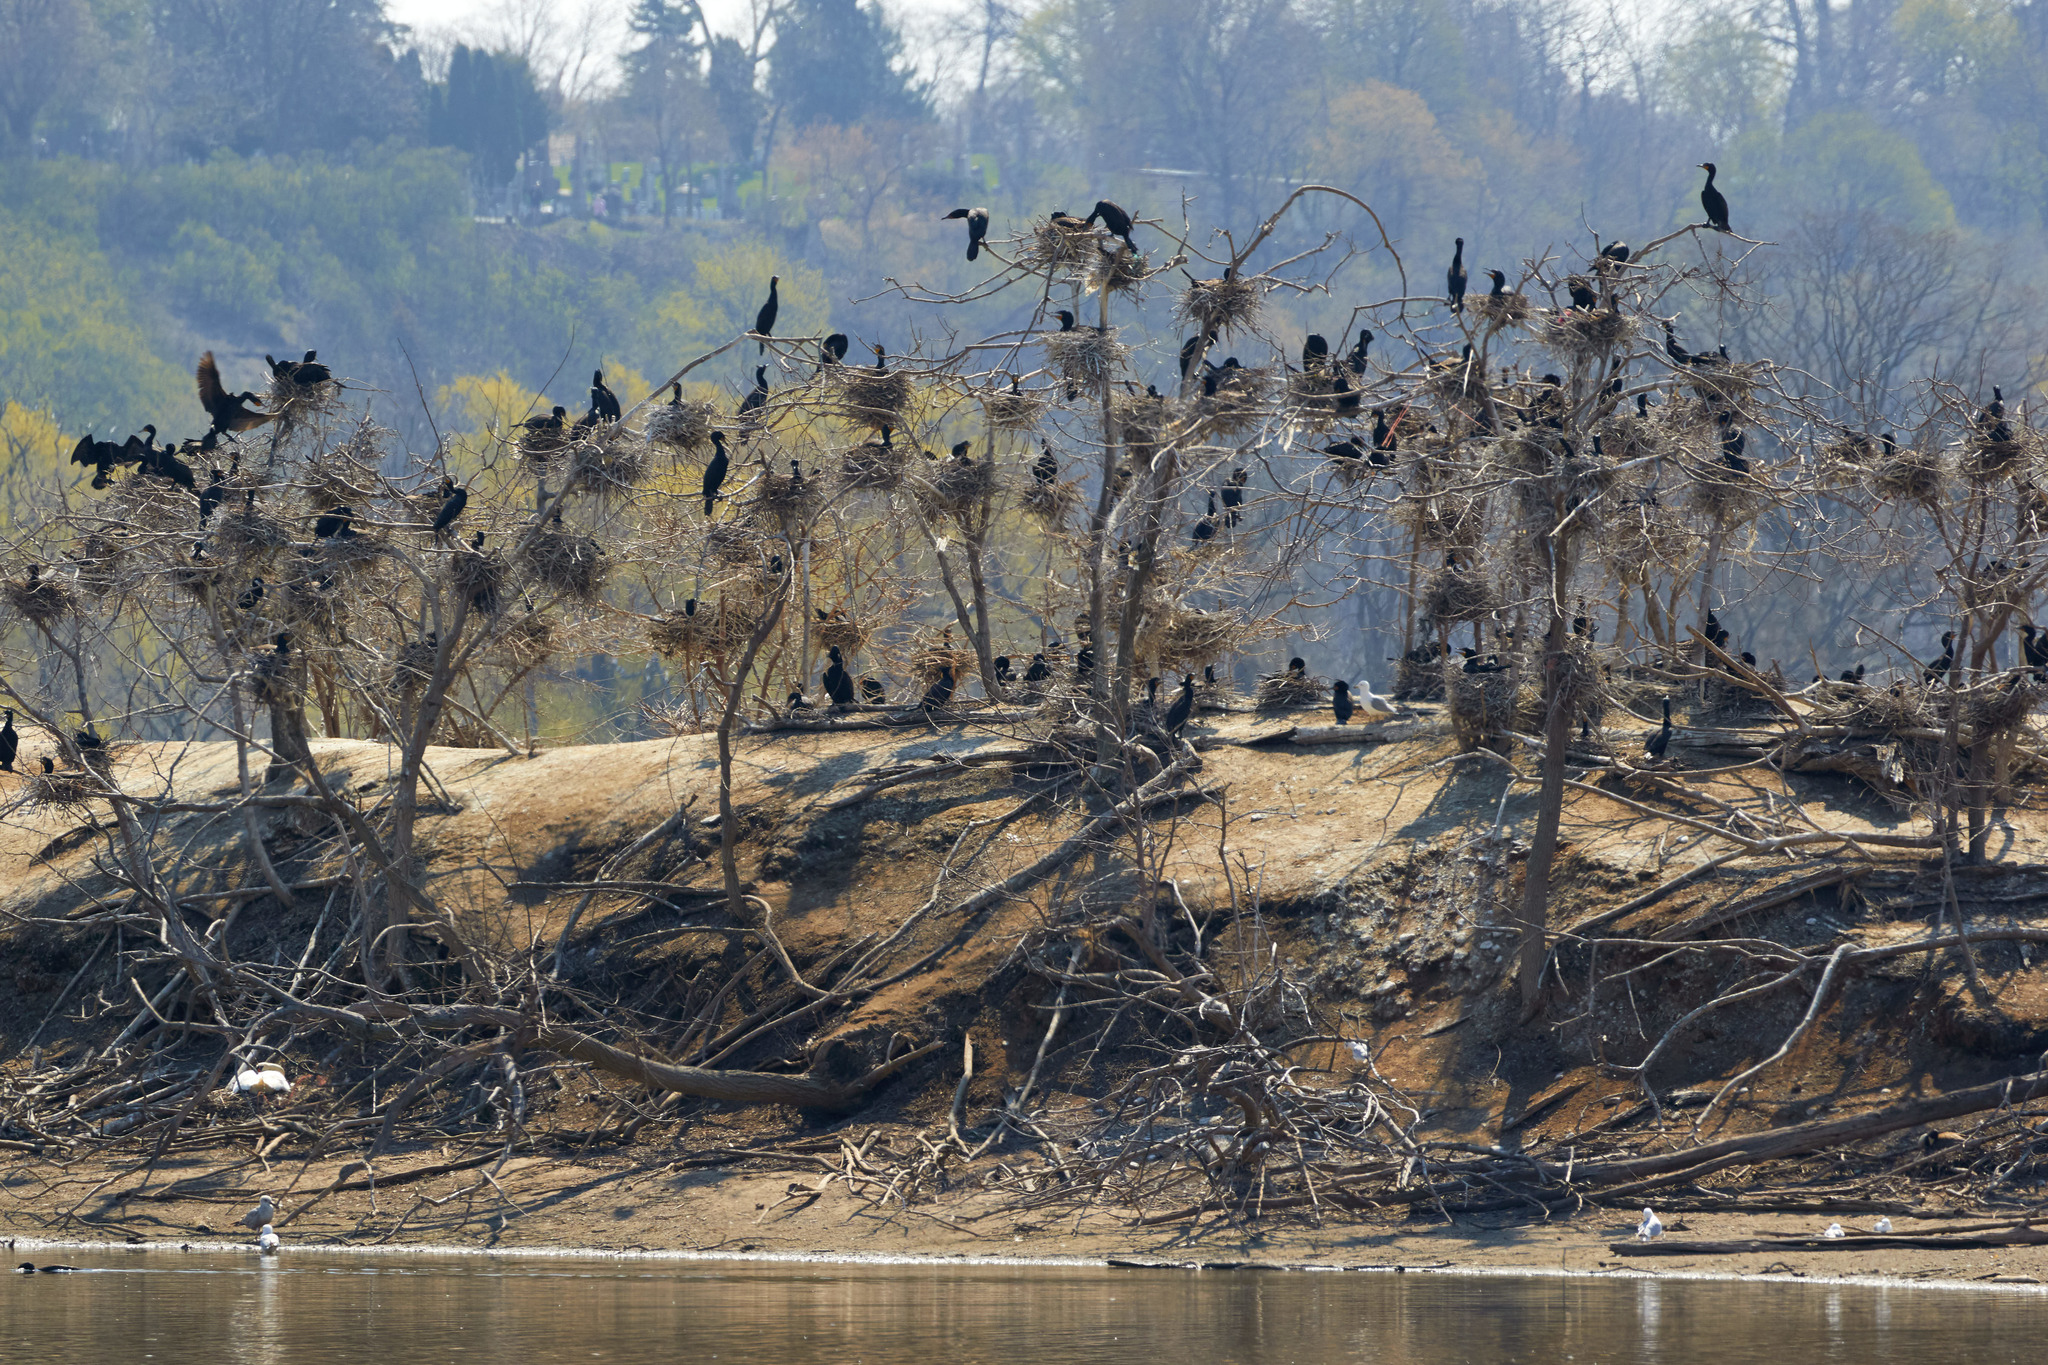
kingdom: Animalia
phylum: Chordata
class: Aves
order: Suliformes
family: Phalacrocoracidae
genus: Phalacrocorax
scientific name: Phalacrocorax auritus
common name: Double-crested cormorant
